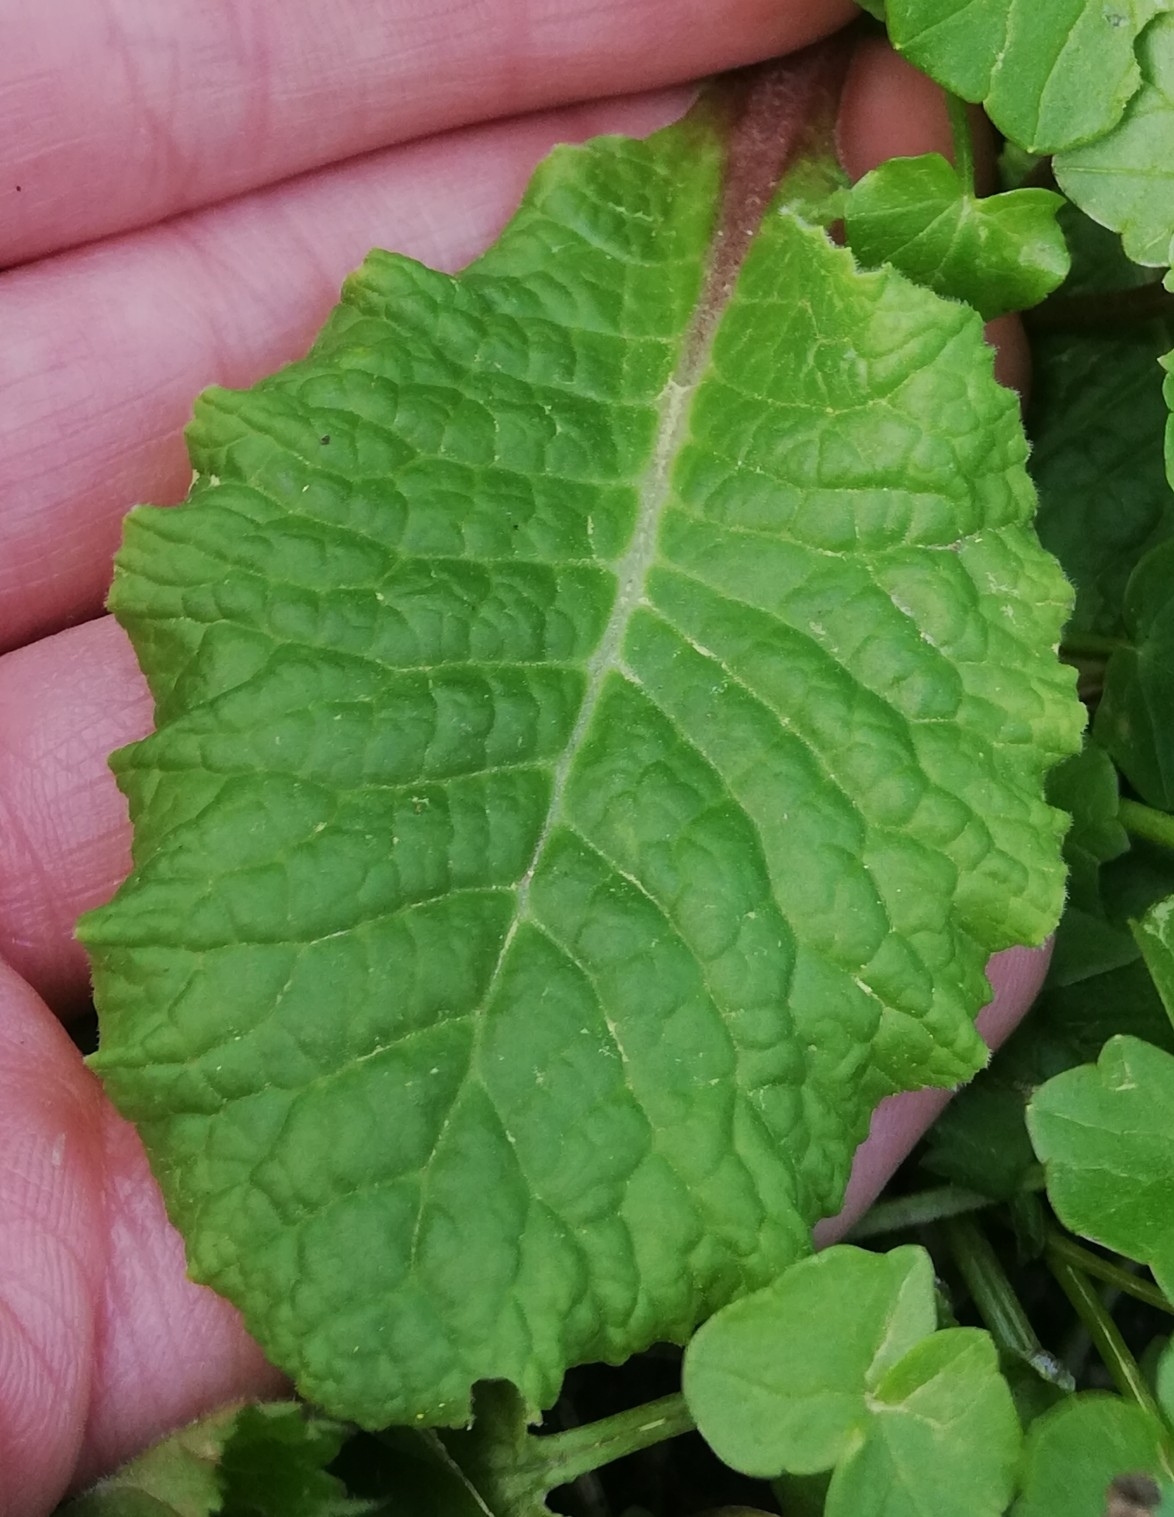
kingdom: Plantae
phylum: Tracheophyta
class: Magnoliopsida
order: Ericales
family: Primulaceae
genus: Primula
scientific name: Primula vulgaris
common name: Primrose
